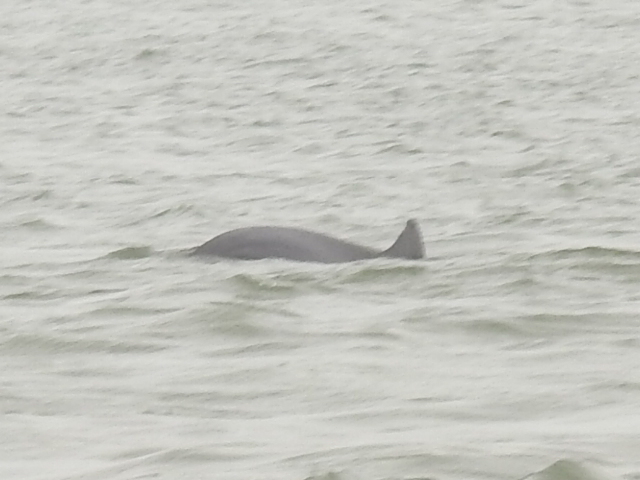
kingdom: Animalia
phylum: Chordata
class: Mammalia
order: Cetacea
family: Delphinidae
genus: Tursiops
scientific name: Tursiops truncatus
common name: Bottlenose dolphin
